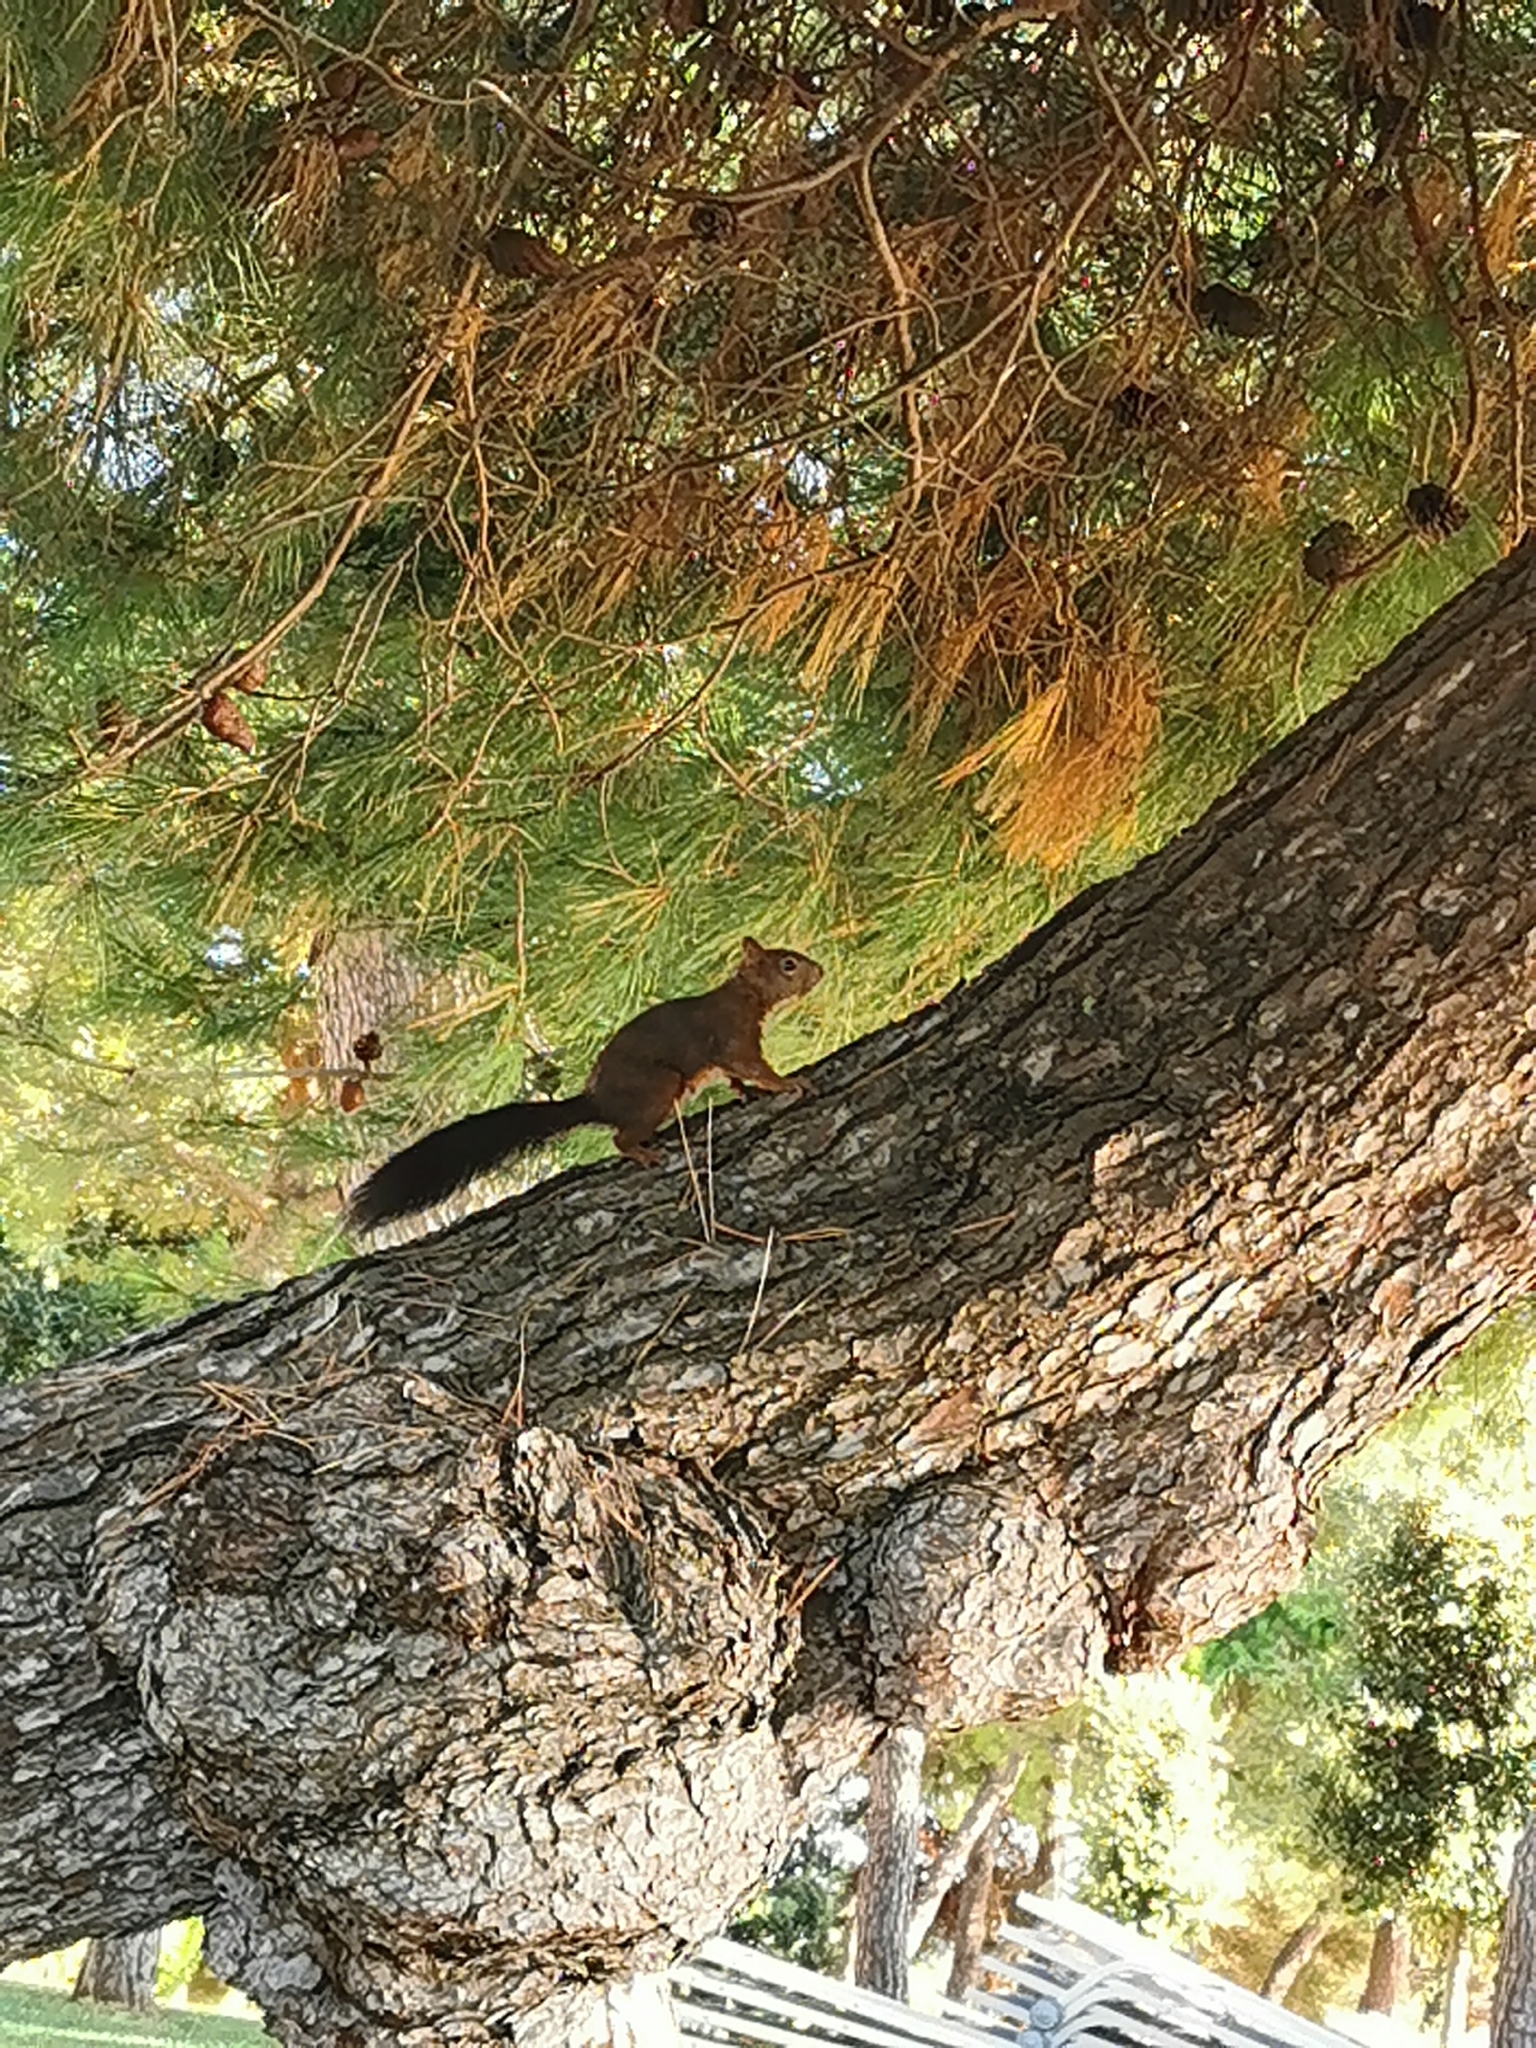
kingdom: Animalia
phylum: Chordata
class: Mammalia
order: Rodentia
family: Sciuridae
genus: Sciurus
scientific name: Sciurus vulgaris
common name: Eurasian red squirrel
